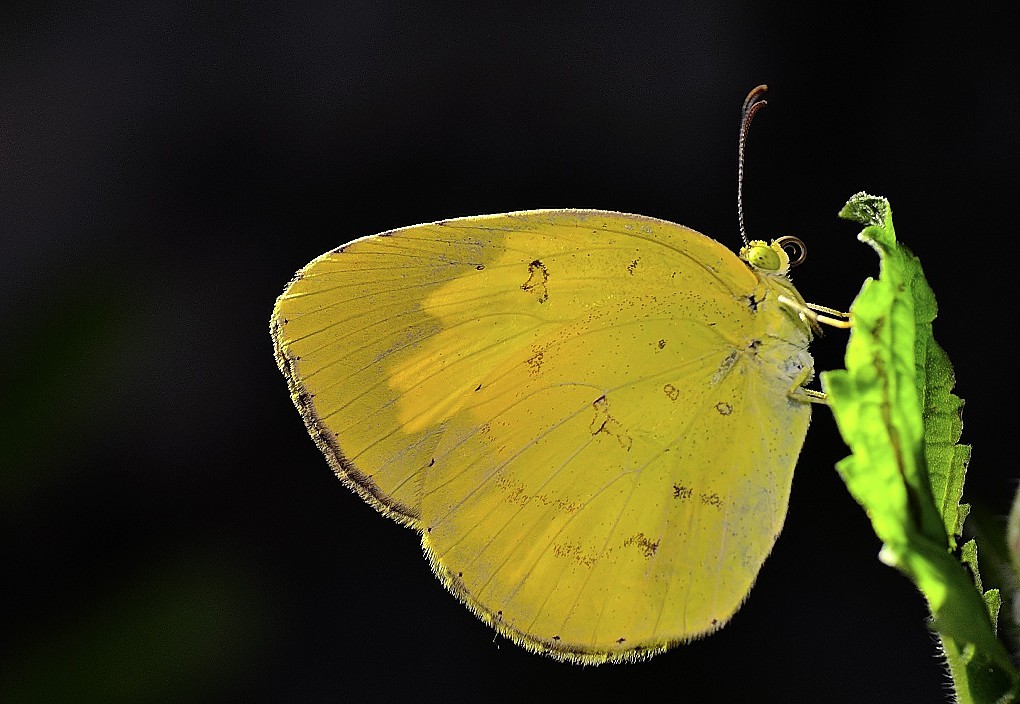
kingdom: Animalia
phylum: Arthropoda
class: Insecta
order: Lepidoptera
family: Pieridae
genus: Eurema
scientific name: Eurema hecabe
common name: Pale grass yellow
